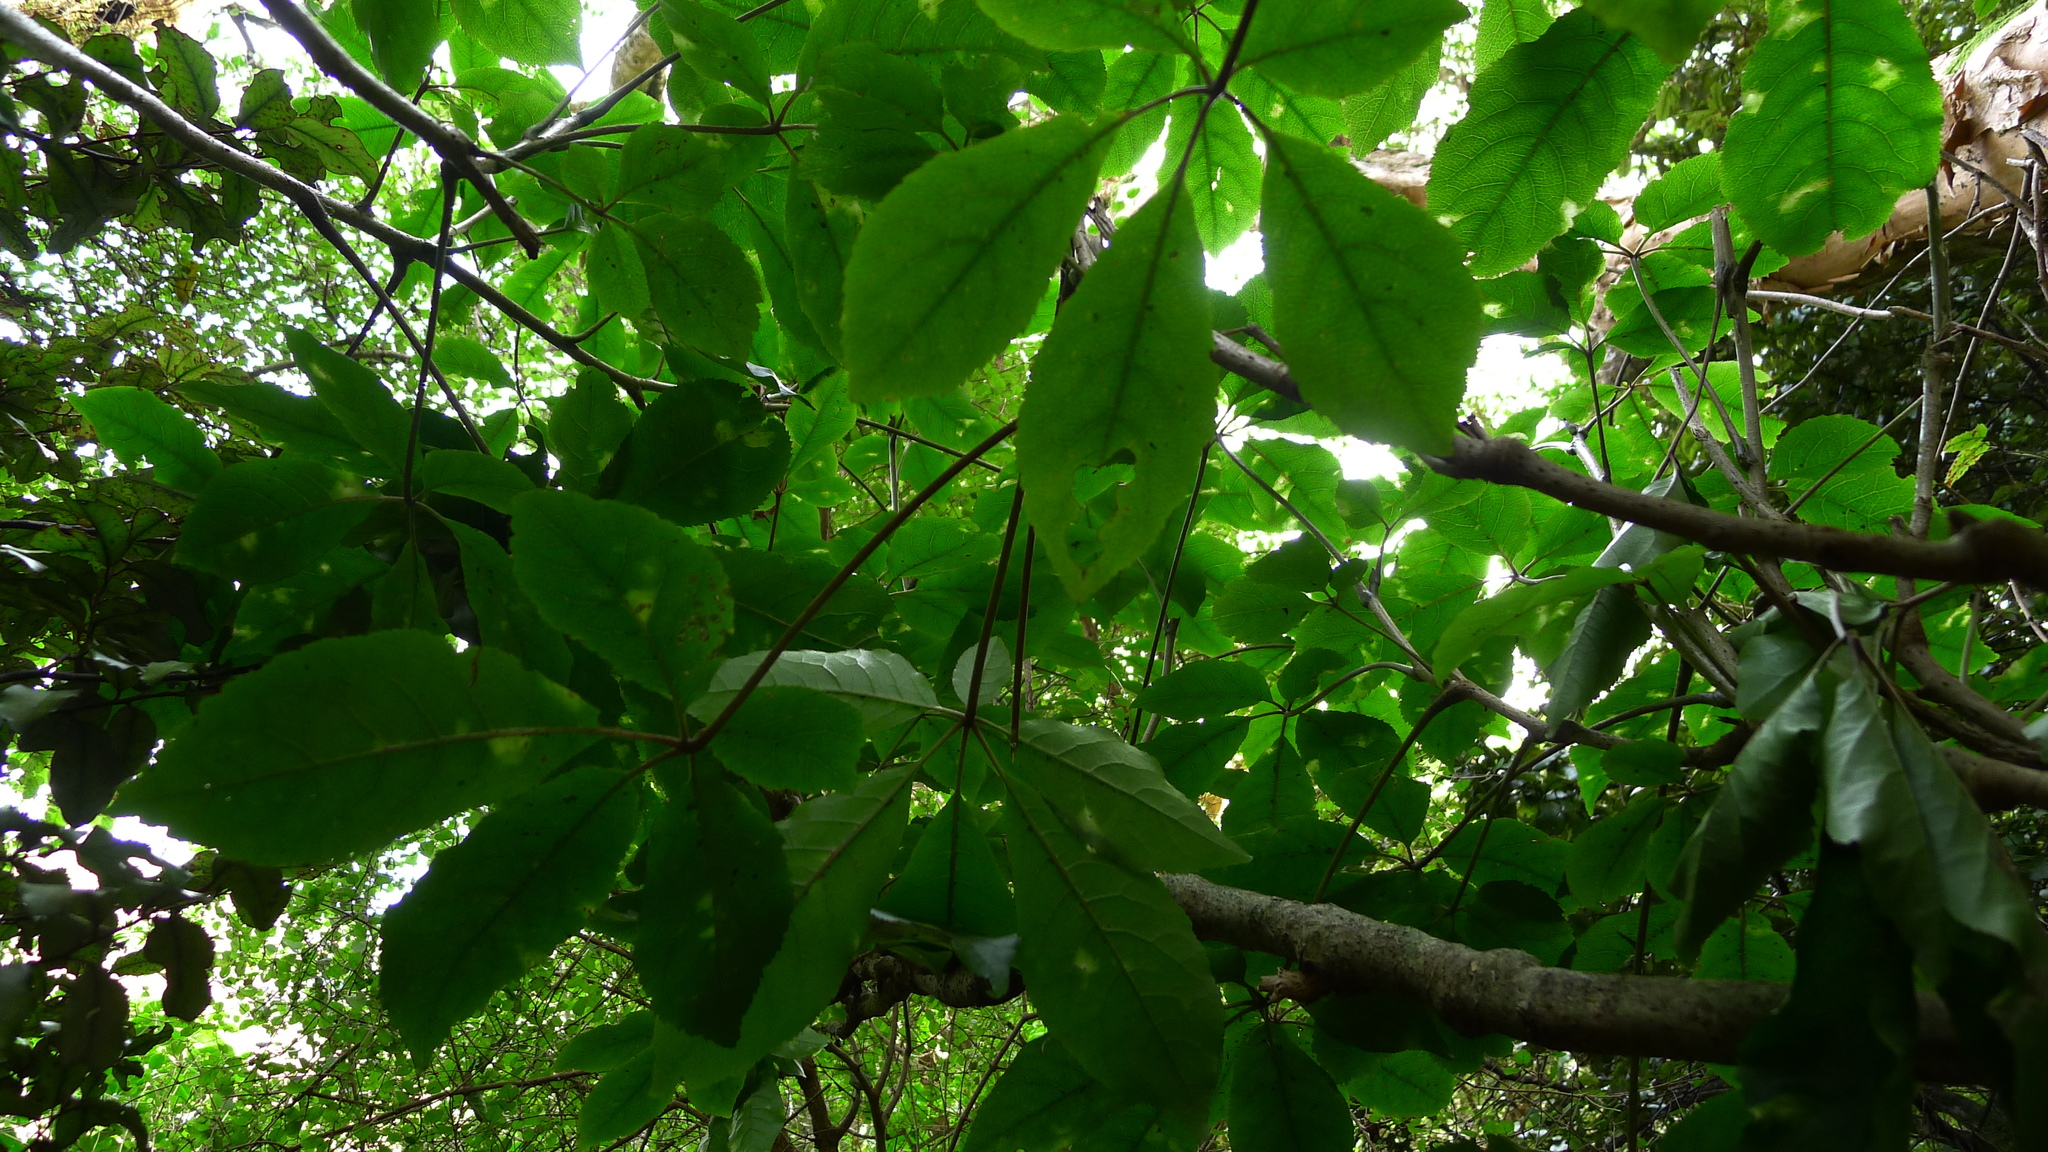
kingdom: Plantae
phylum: Tracheophyta
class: Magnoliopsida
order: Apiales
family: Araliaceae
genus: Schefflera
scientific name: Schefflera digitata
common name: Pate
